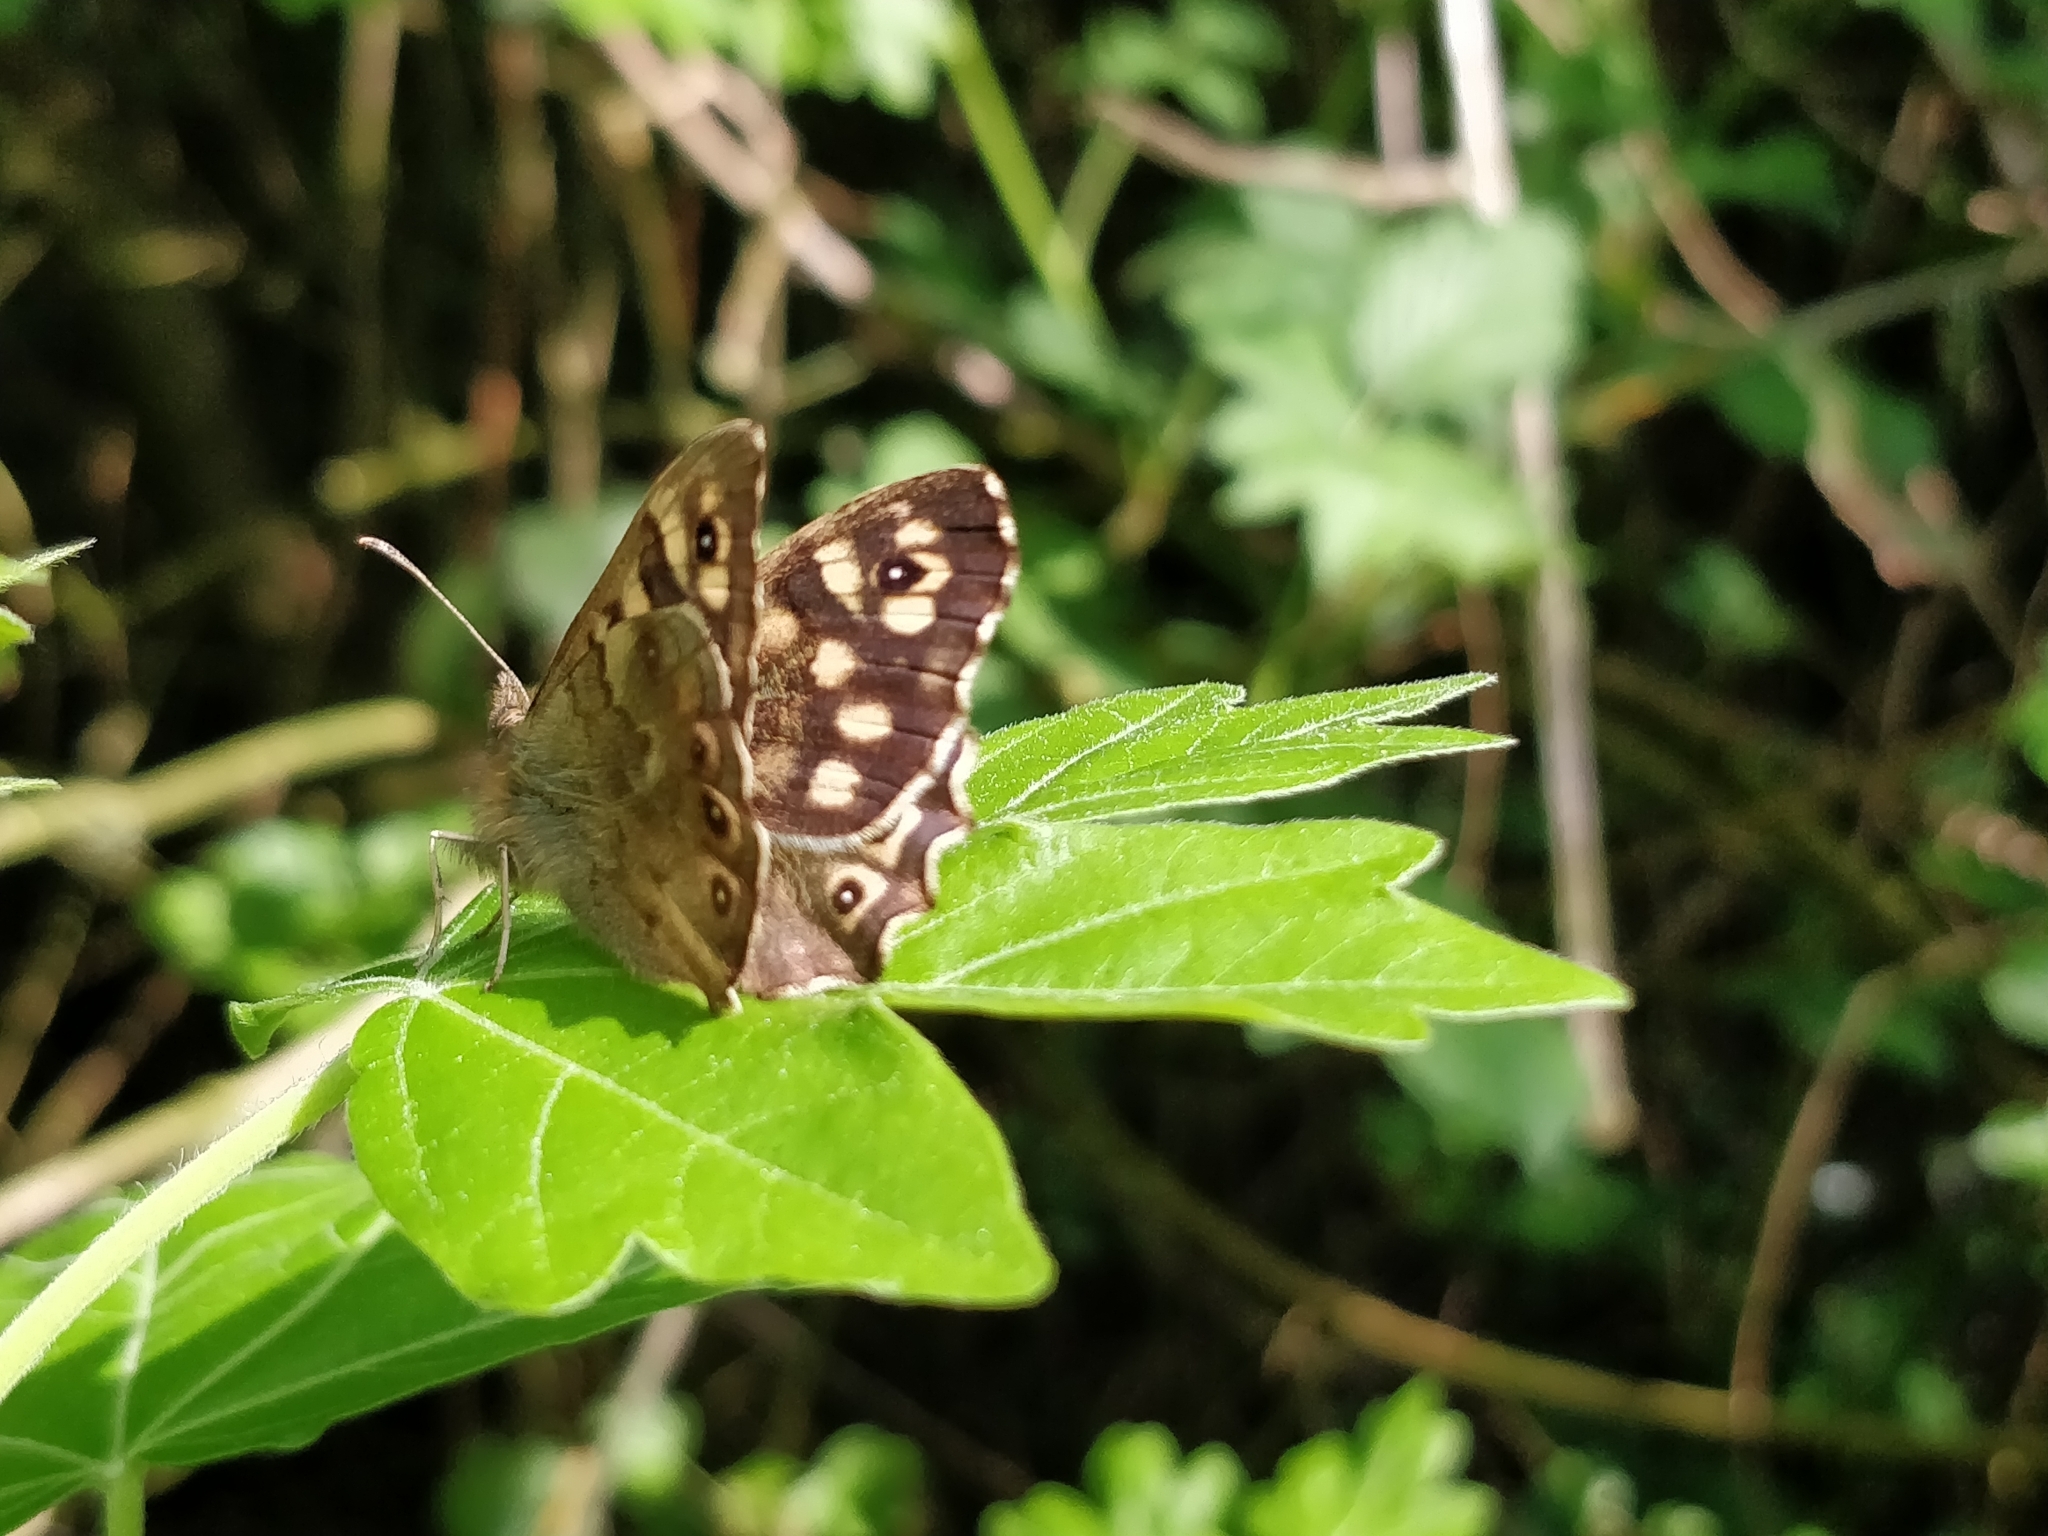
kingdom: Animalia
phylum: Arthropoda
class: Insecta
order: Lepidoptera
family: Nymphalidae
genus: Pararge
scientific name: Pararge aegeria
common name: Speckled wood
